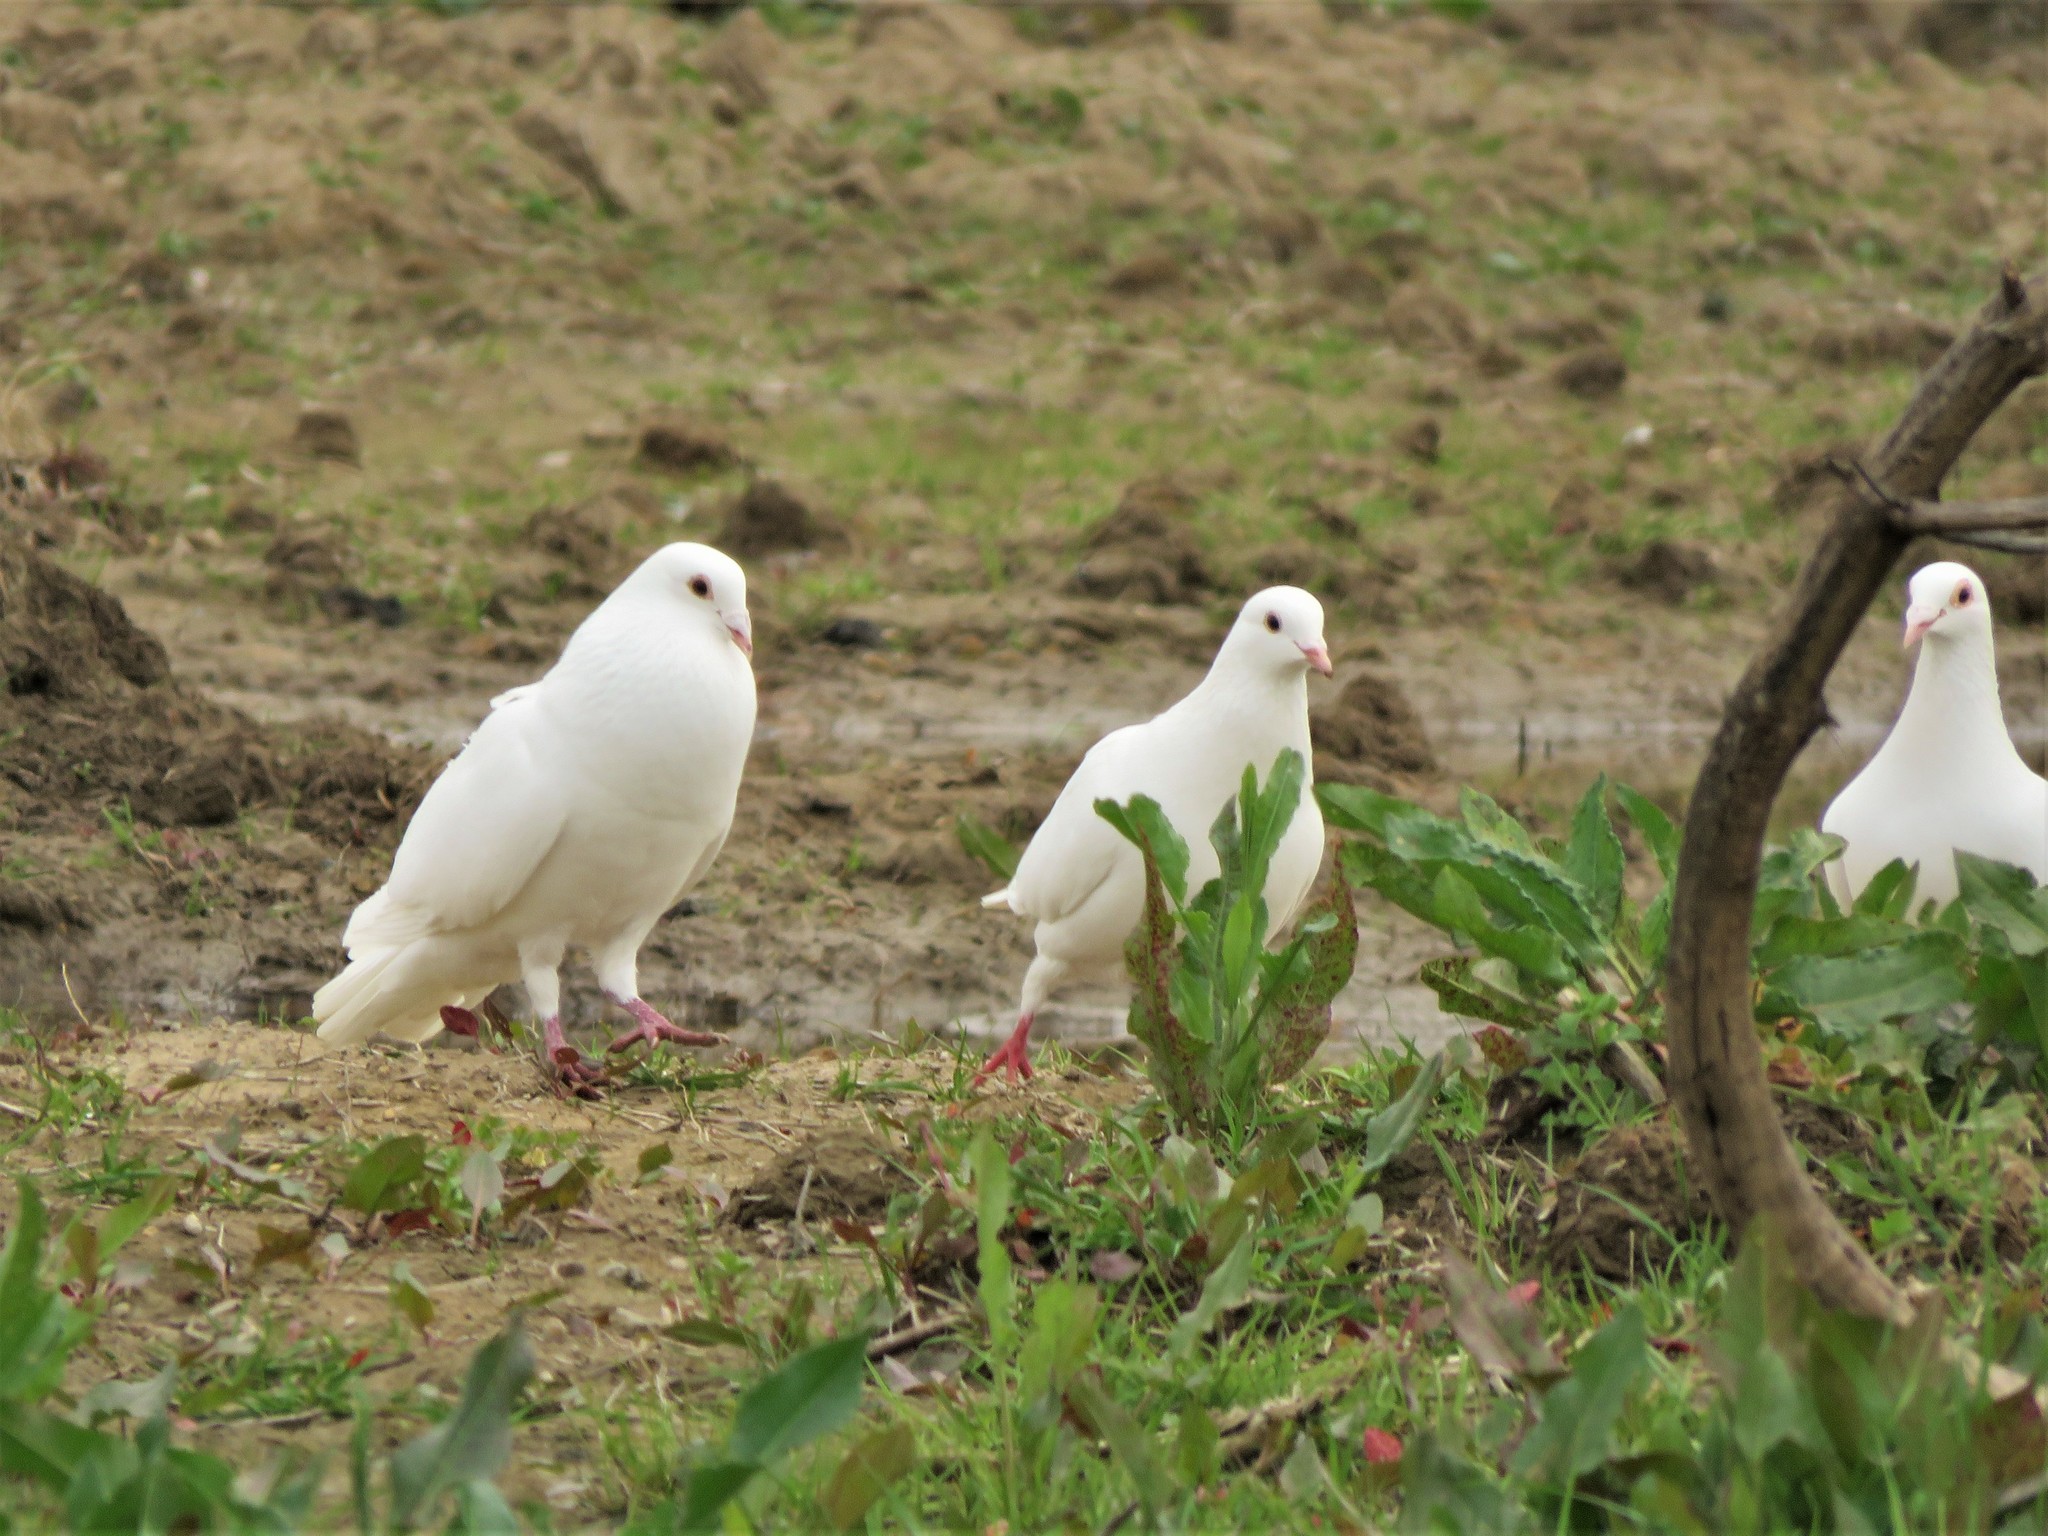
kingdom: Animalia
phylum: Chordata
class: Aves
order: Columbiformes
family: Columbidae
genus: Columba
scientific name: Columba livia
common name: Rock pigeon
